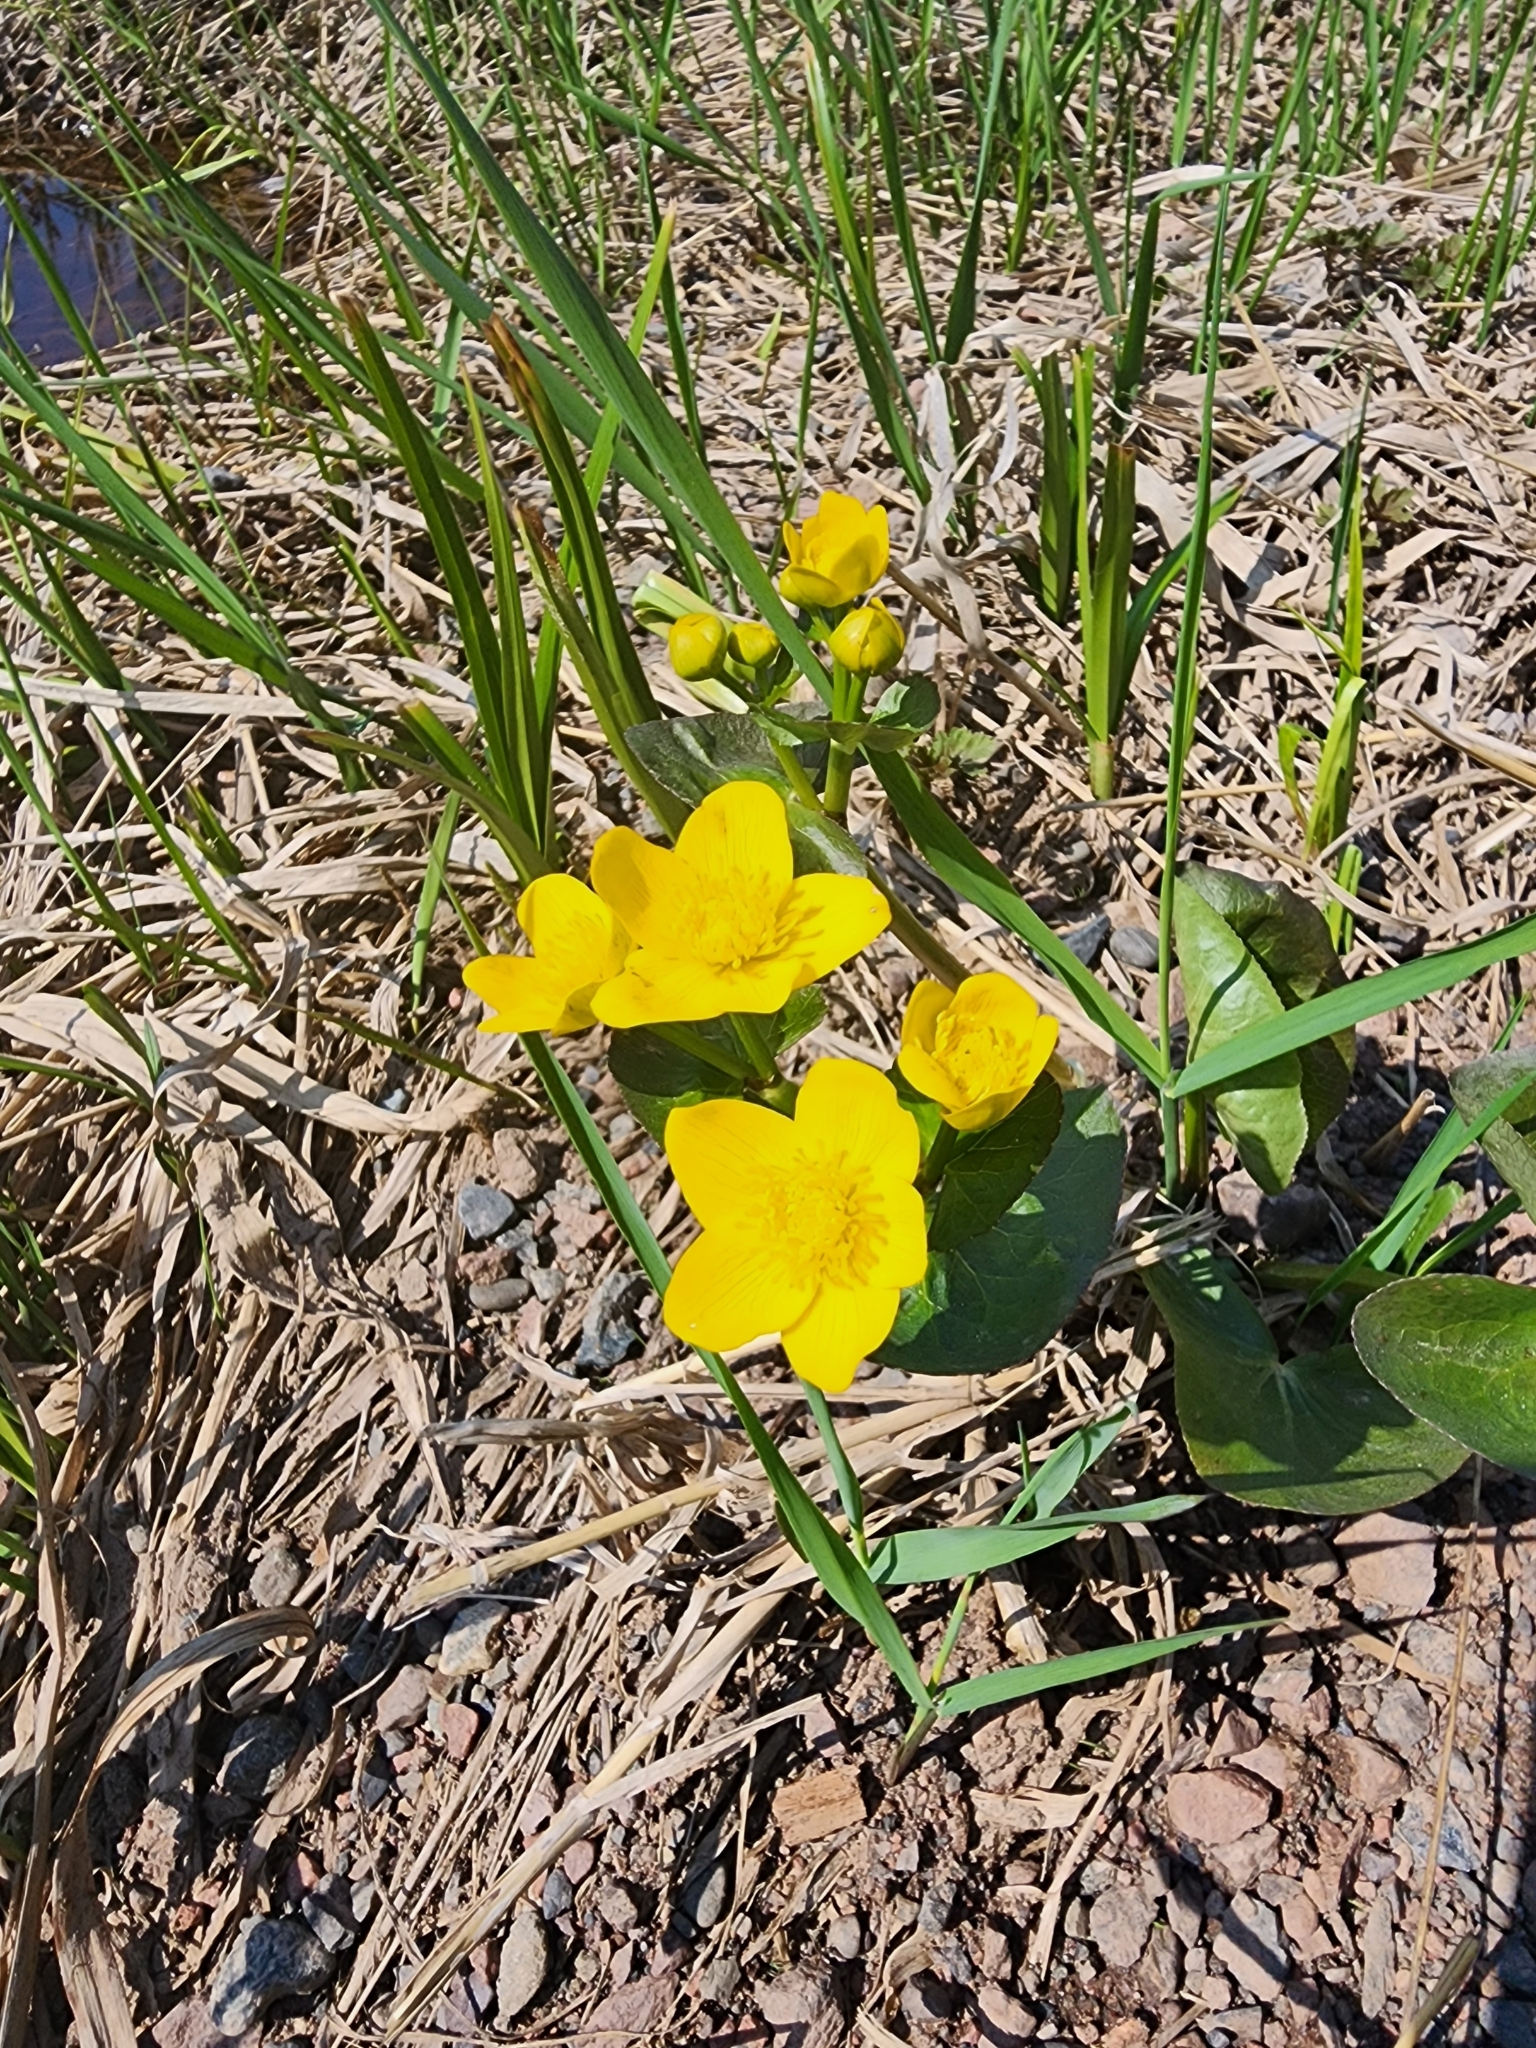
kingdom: Plantae
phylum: Tracheophyta
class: Magnoliopsida
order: Ranunculales
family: Ranunculaceae
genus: Caltha
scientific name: Caltha palustris
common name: Marsh marigold
